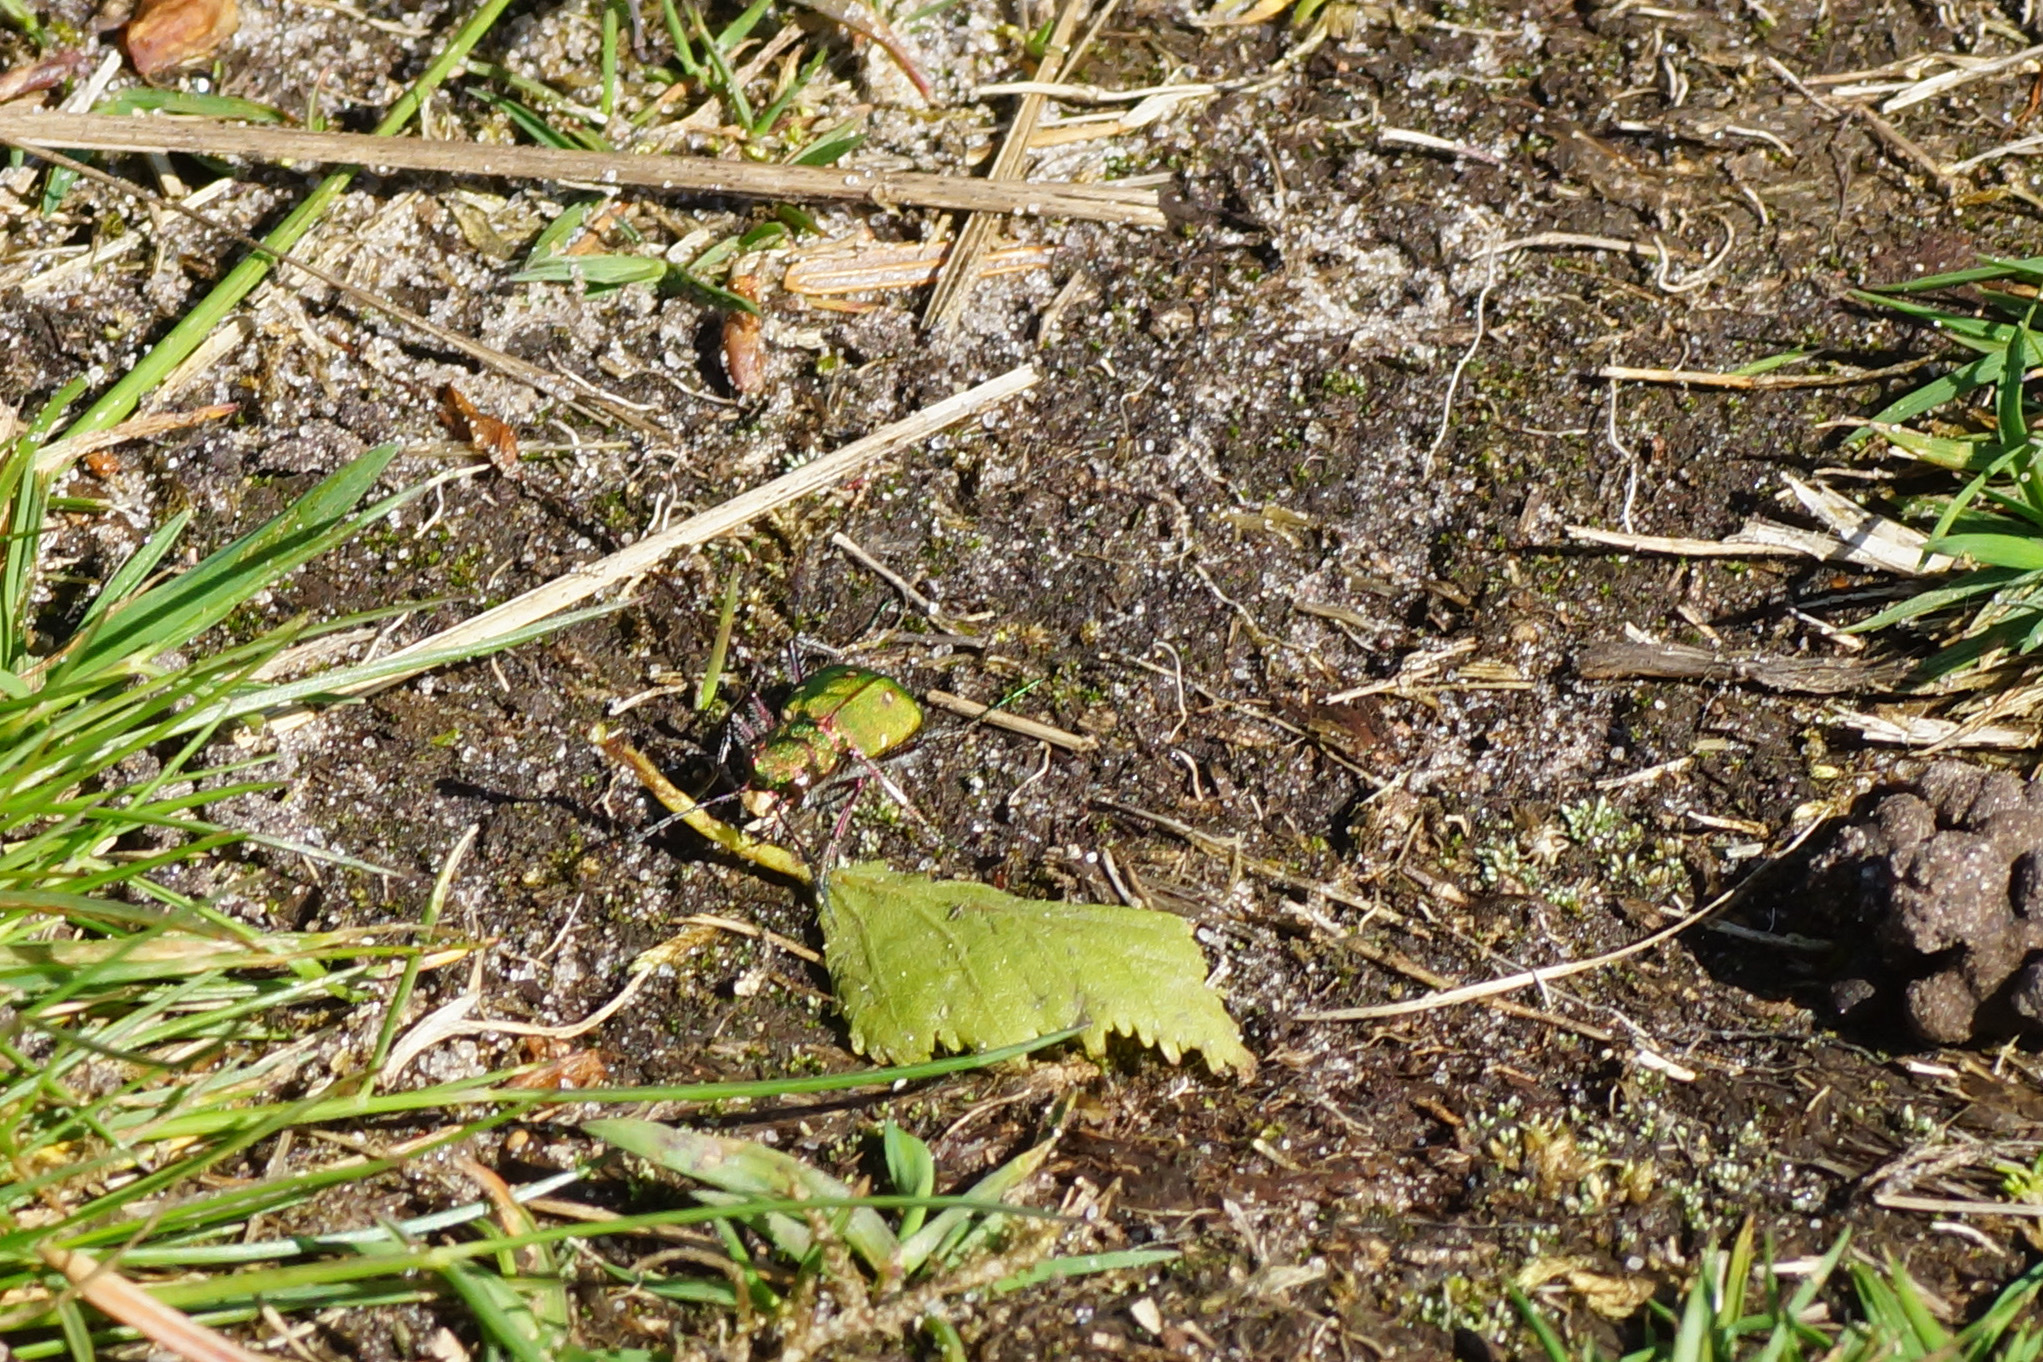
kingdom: Animalia
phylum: Arthropoda
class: Insecta
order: Coleoptera
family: Carabidae
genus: Cicindela
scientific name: Cicindela campestris
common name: Common tiger beetle
